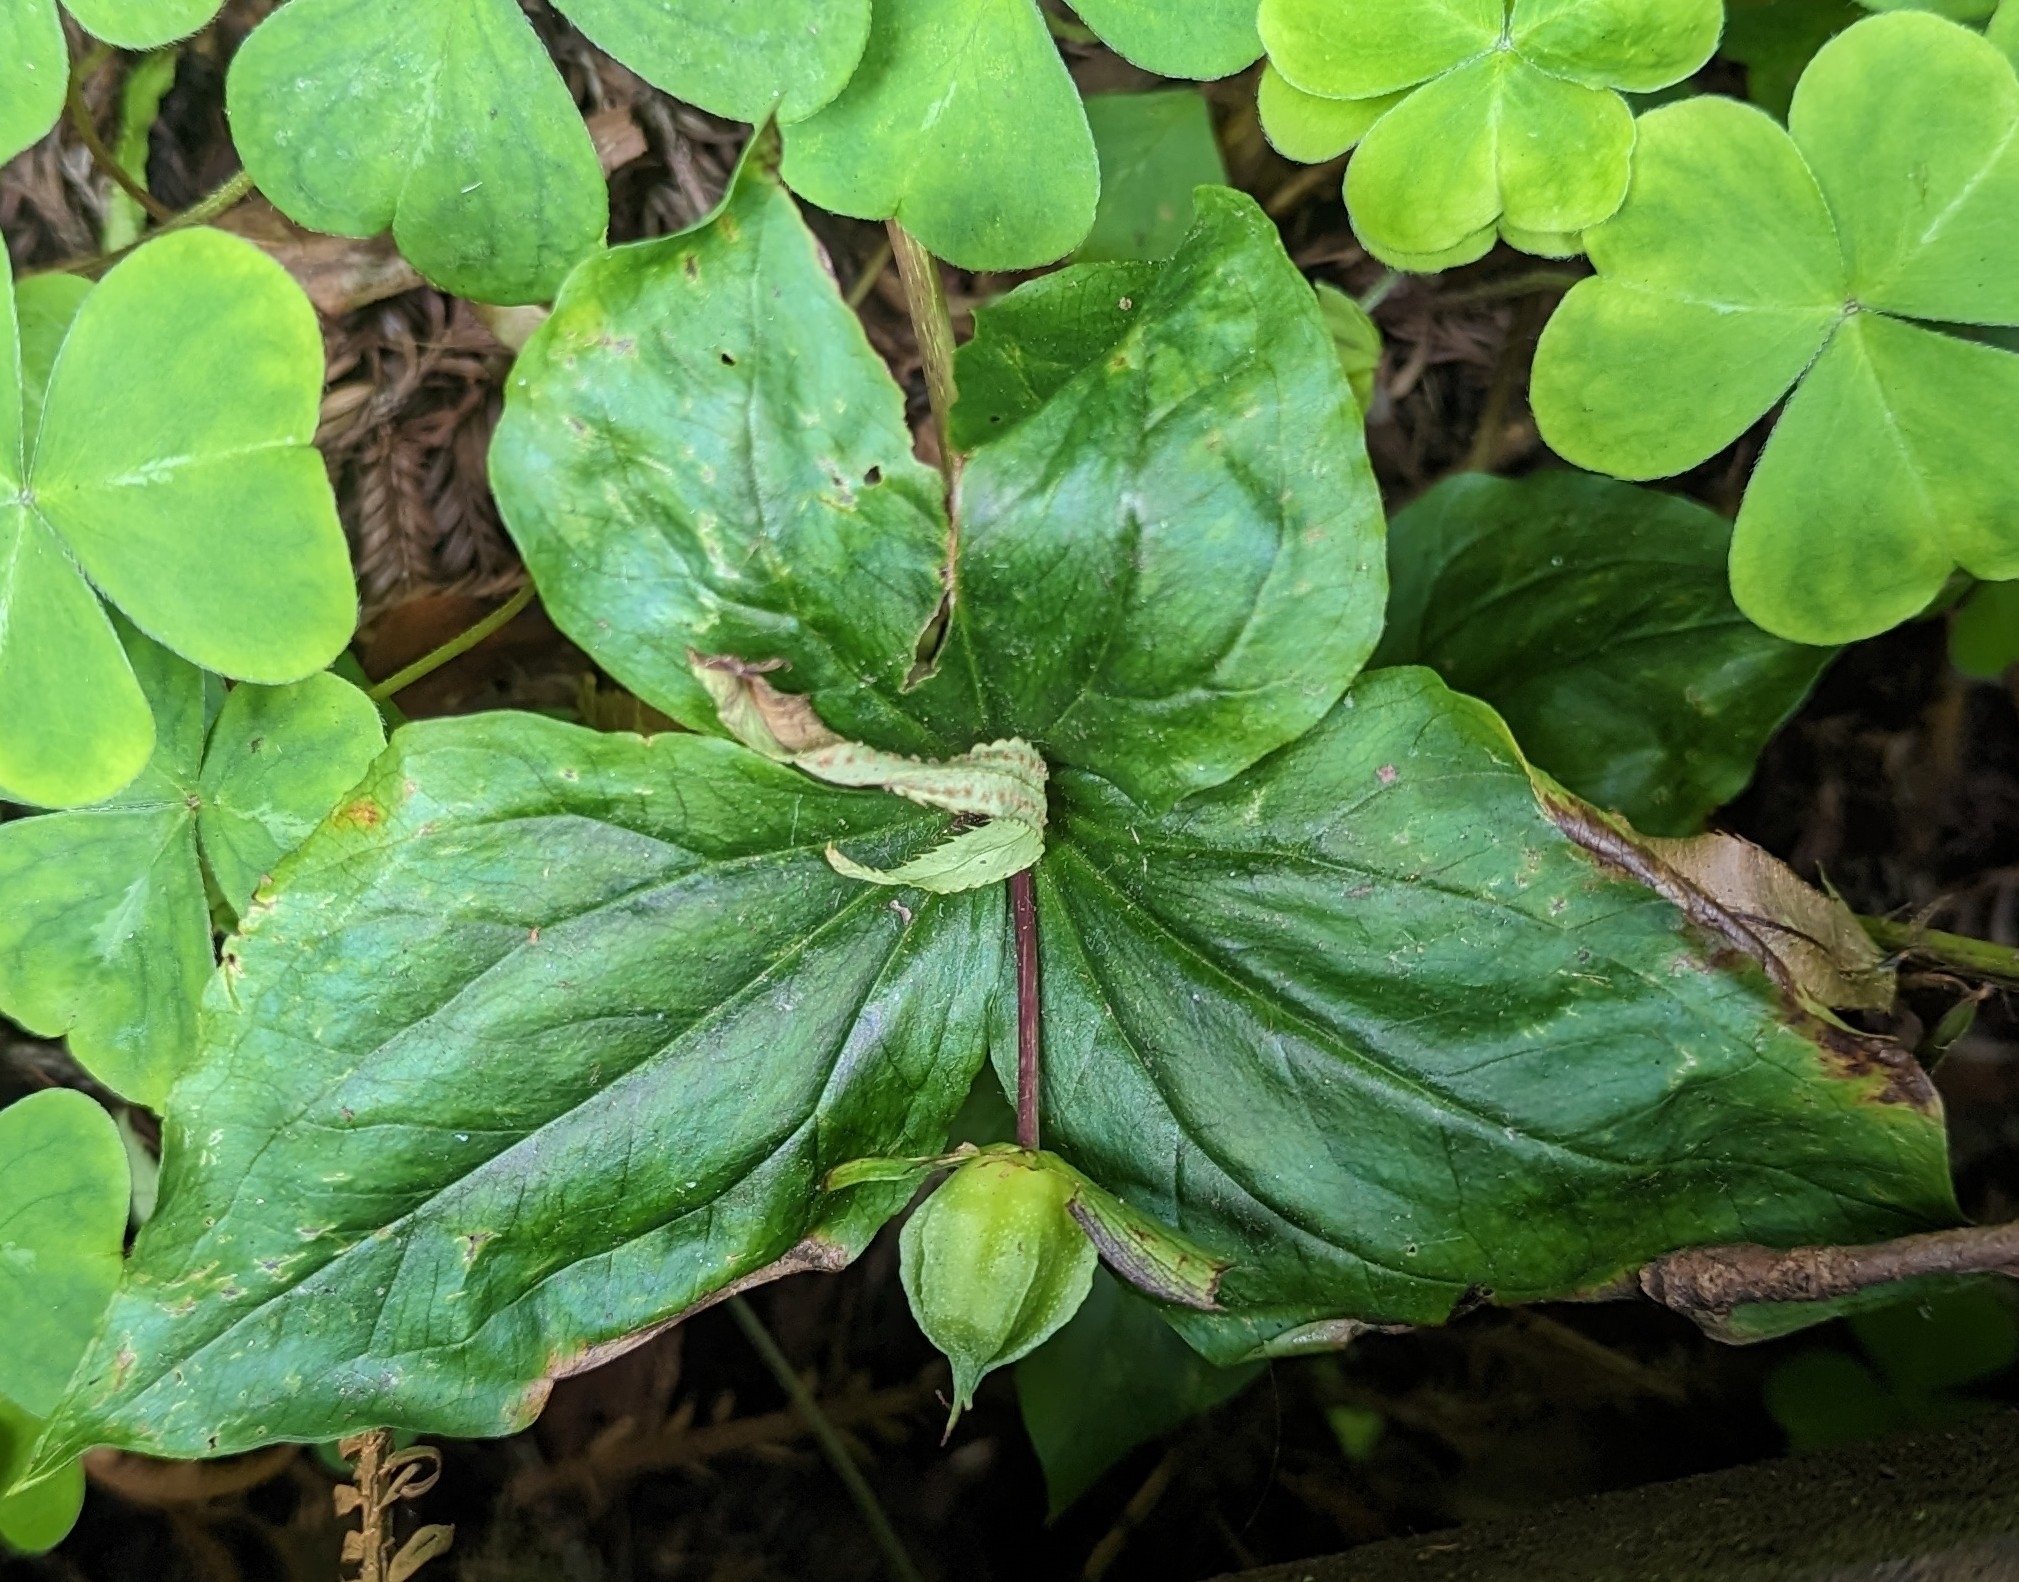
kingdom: Plantae
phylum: Tracheophyta
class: Liliopsida
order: Liliales
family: Melanthiaceae
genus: Trillium
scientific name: Trillium ovatum
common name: Pacific trillium
